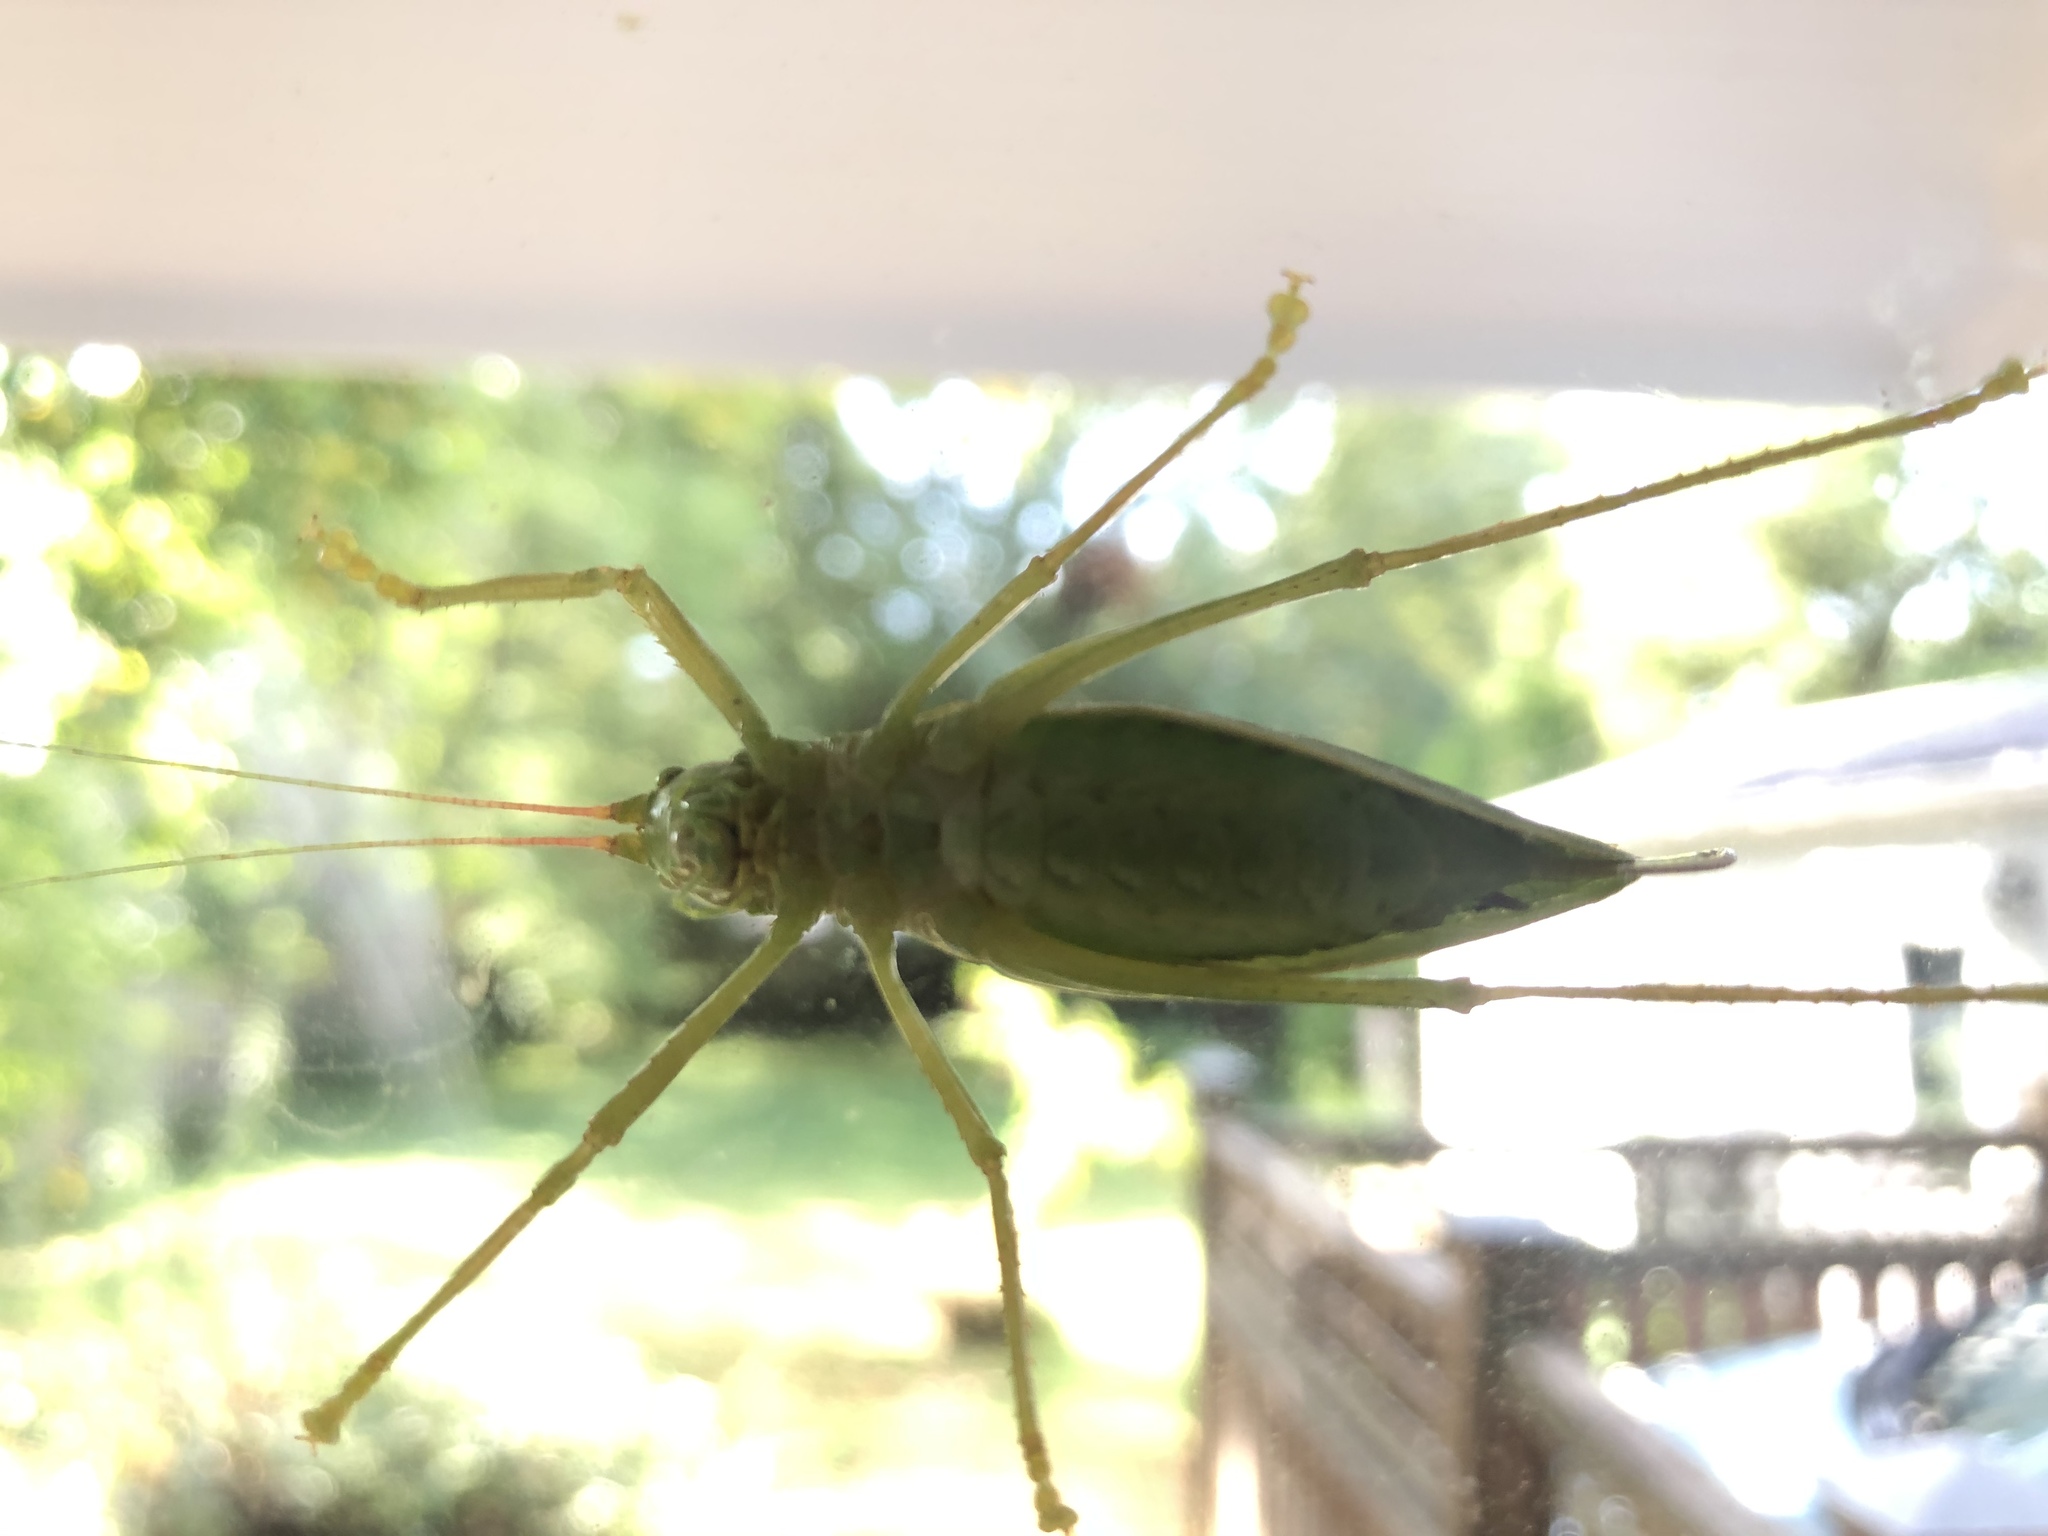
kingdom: Animalia
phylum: Arthropoda
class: Insecta
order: Orthoptera
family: Tettigoniidae
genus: Pterophylla
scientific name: Pterophylla camellifolia
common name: Common true katydid
